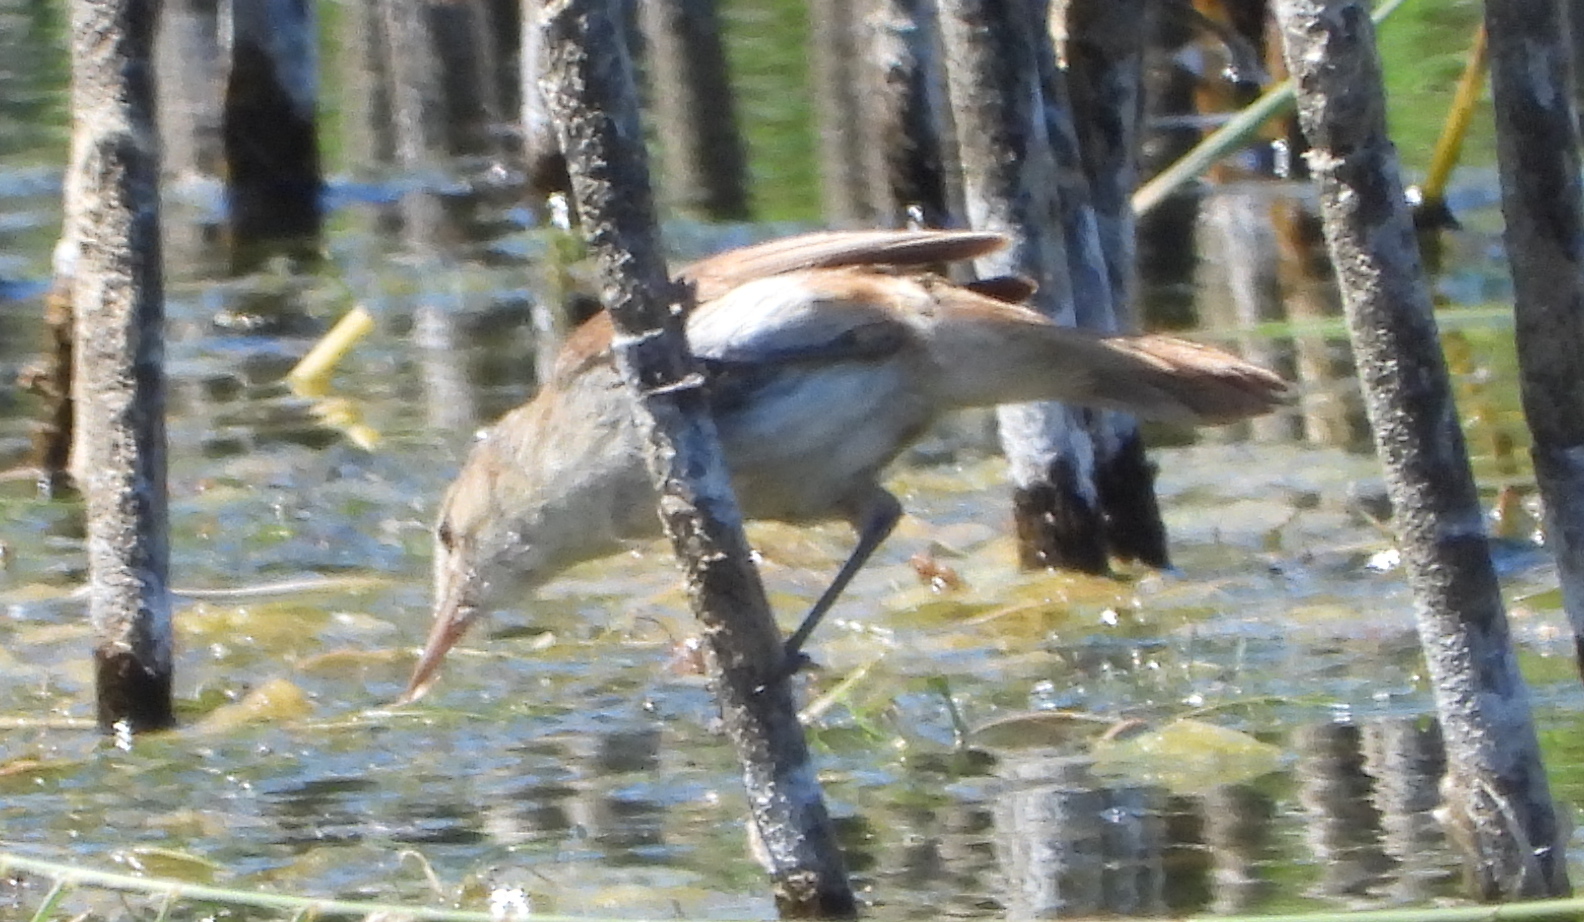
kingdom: Animalia
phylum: Chordata
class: Aves
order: Passeriformes
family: Acrocephalidae
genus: Acrocephalus
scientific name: Acrocephalus gracilirostris
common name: Lesser swamp warbler
